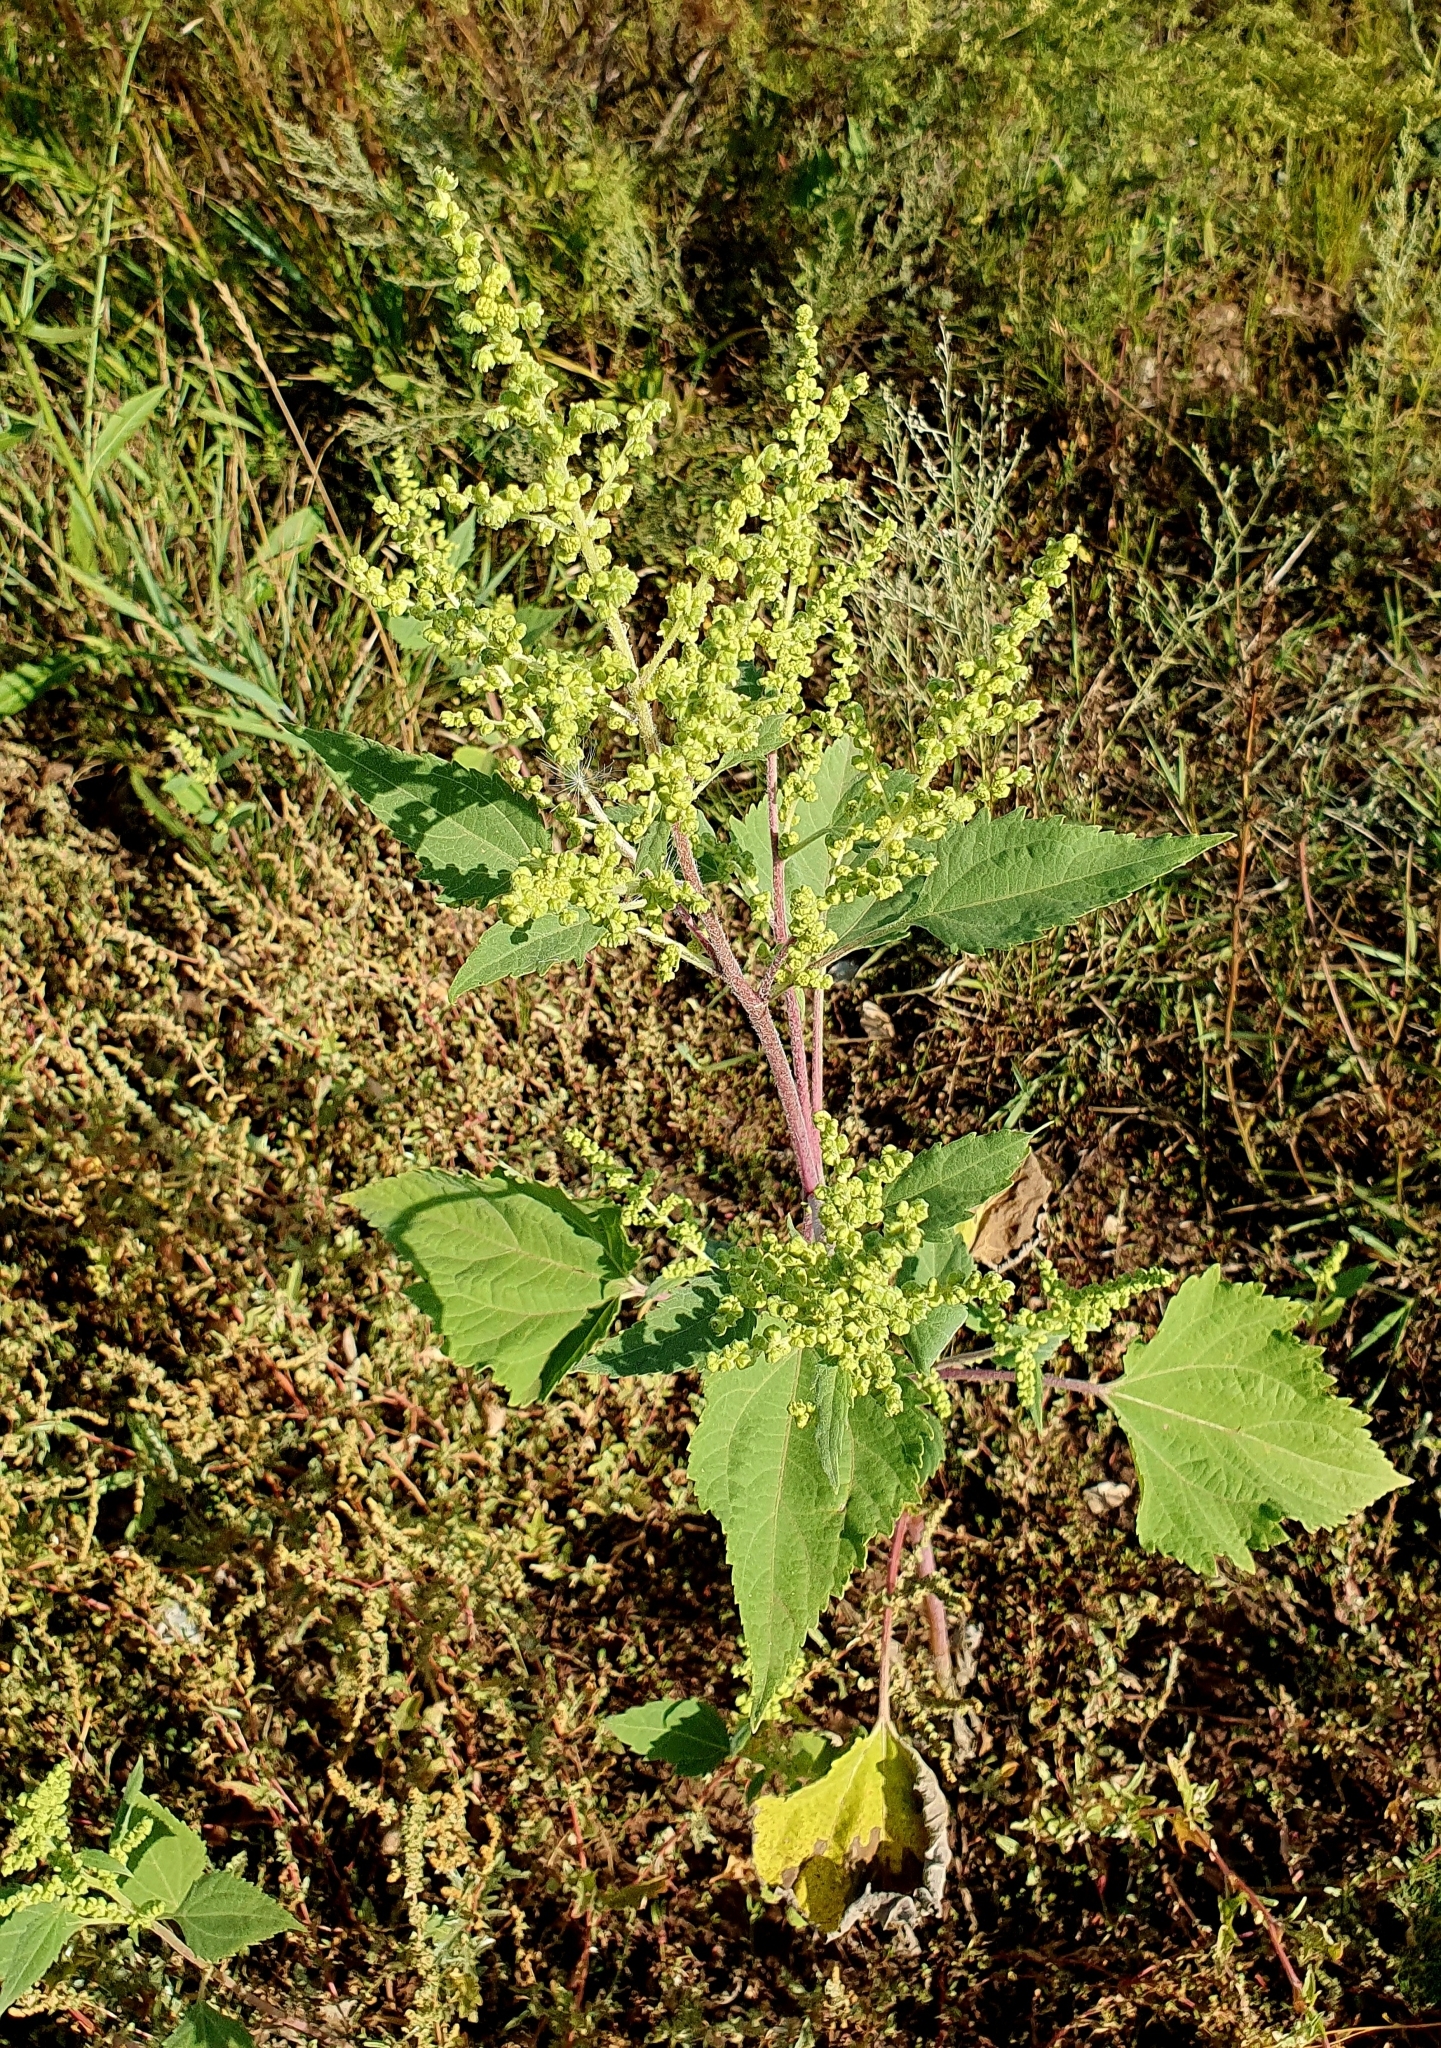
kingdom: Plantae
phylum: Tracheophyta
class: Magnoliopsida
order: Asterales
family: Asteraceae
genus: Cyclachaena
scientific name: Cyclachaena xanthiifolia
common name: Giant sumpweed
